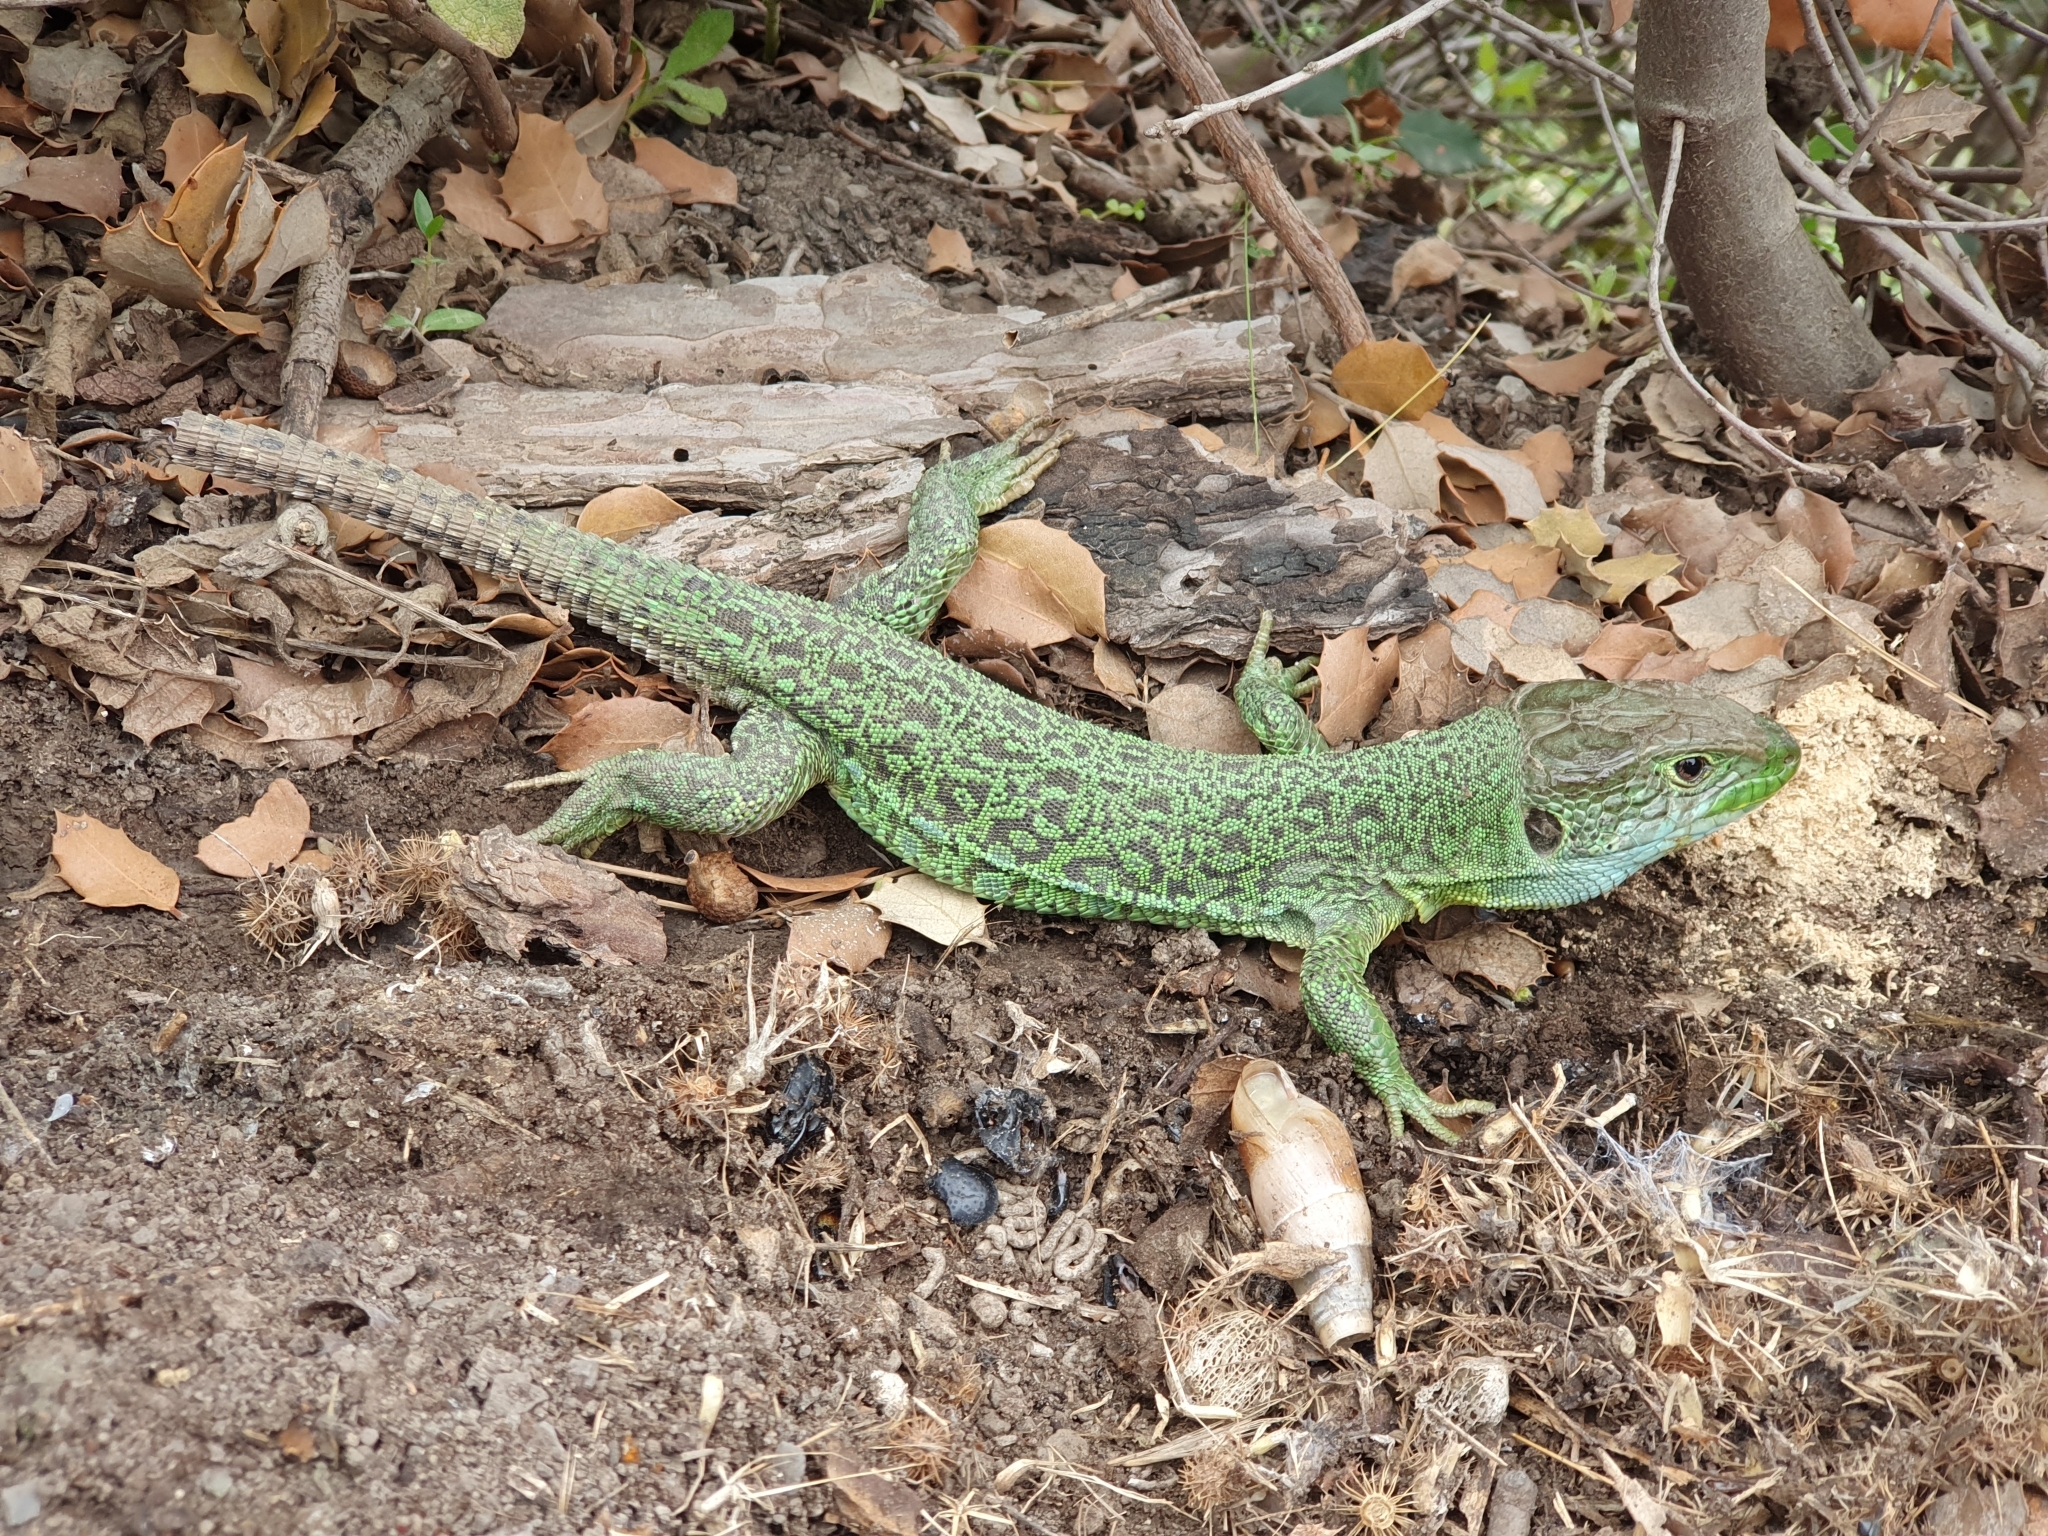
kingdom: Animalia
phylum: Chordata
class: Squamata
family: Lacertidae
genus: Timon
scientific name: Timon pater
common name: North african ocellated lizard
